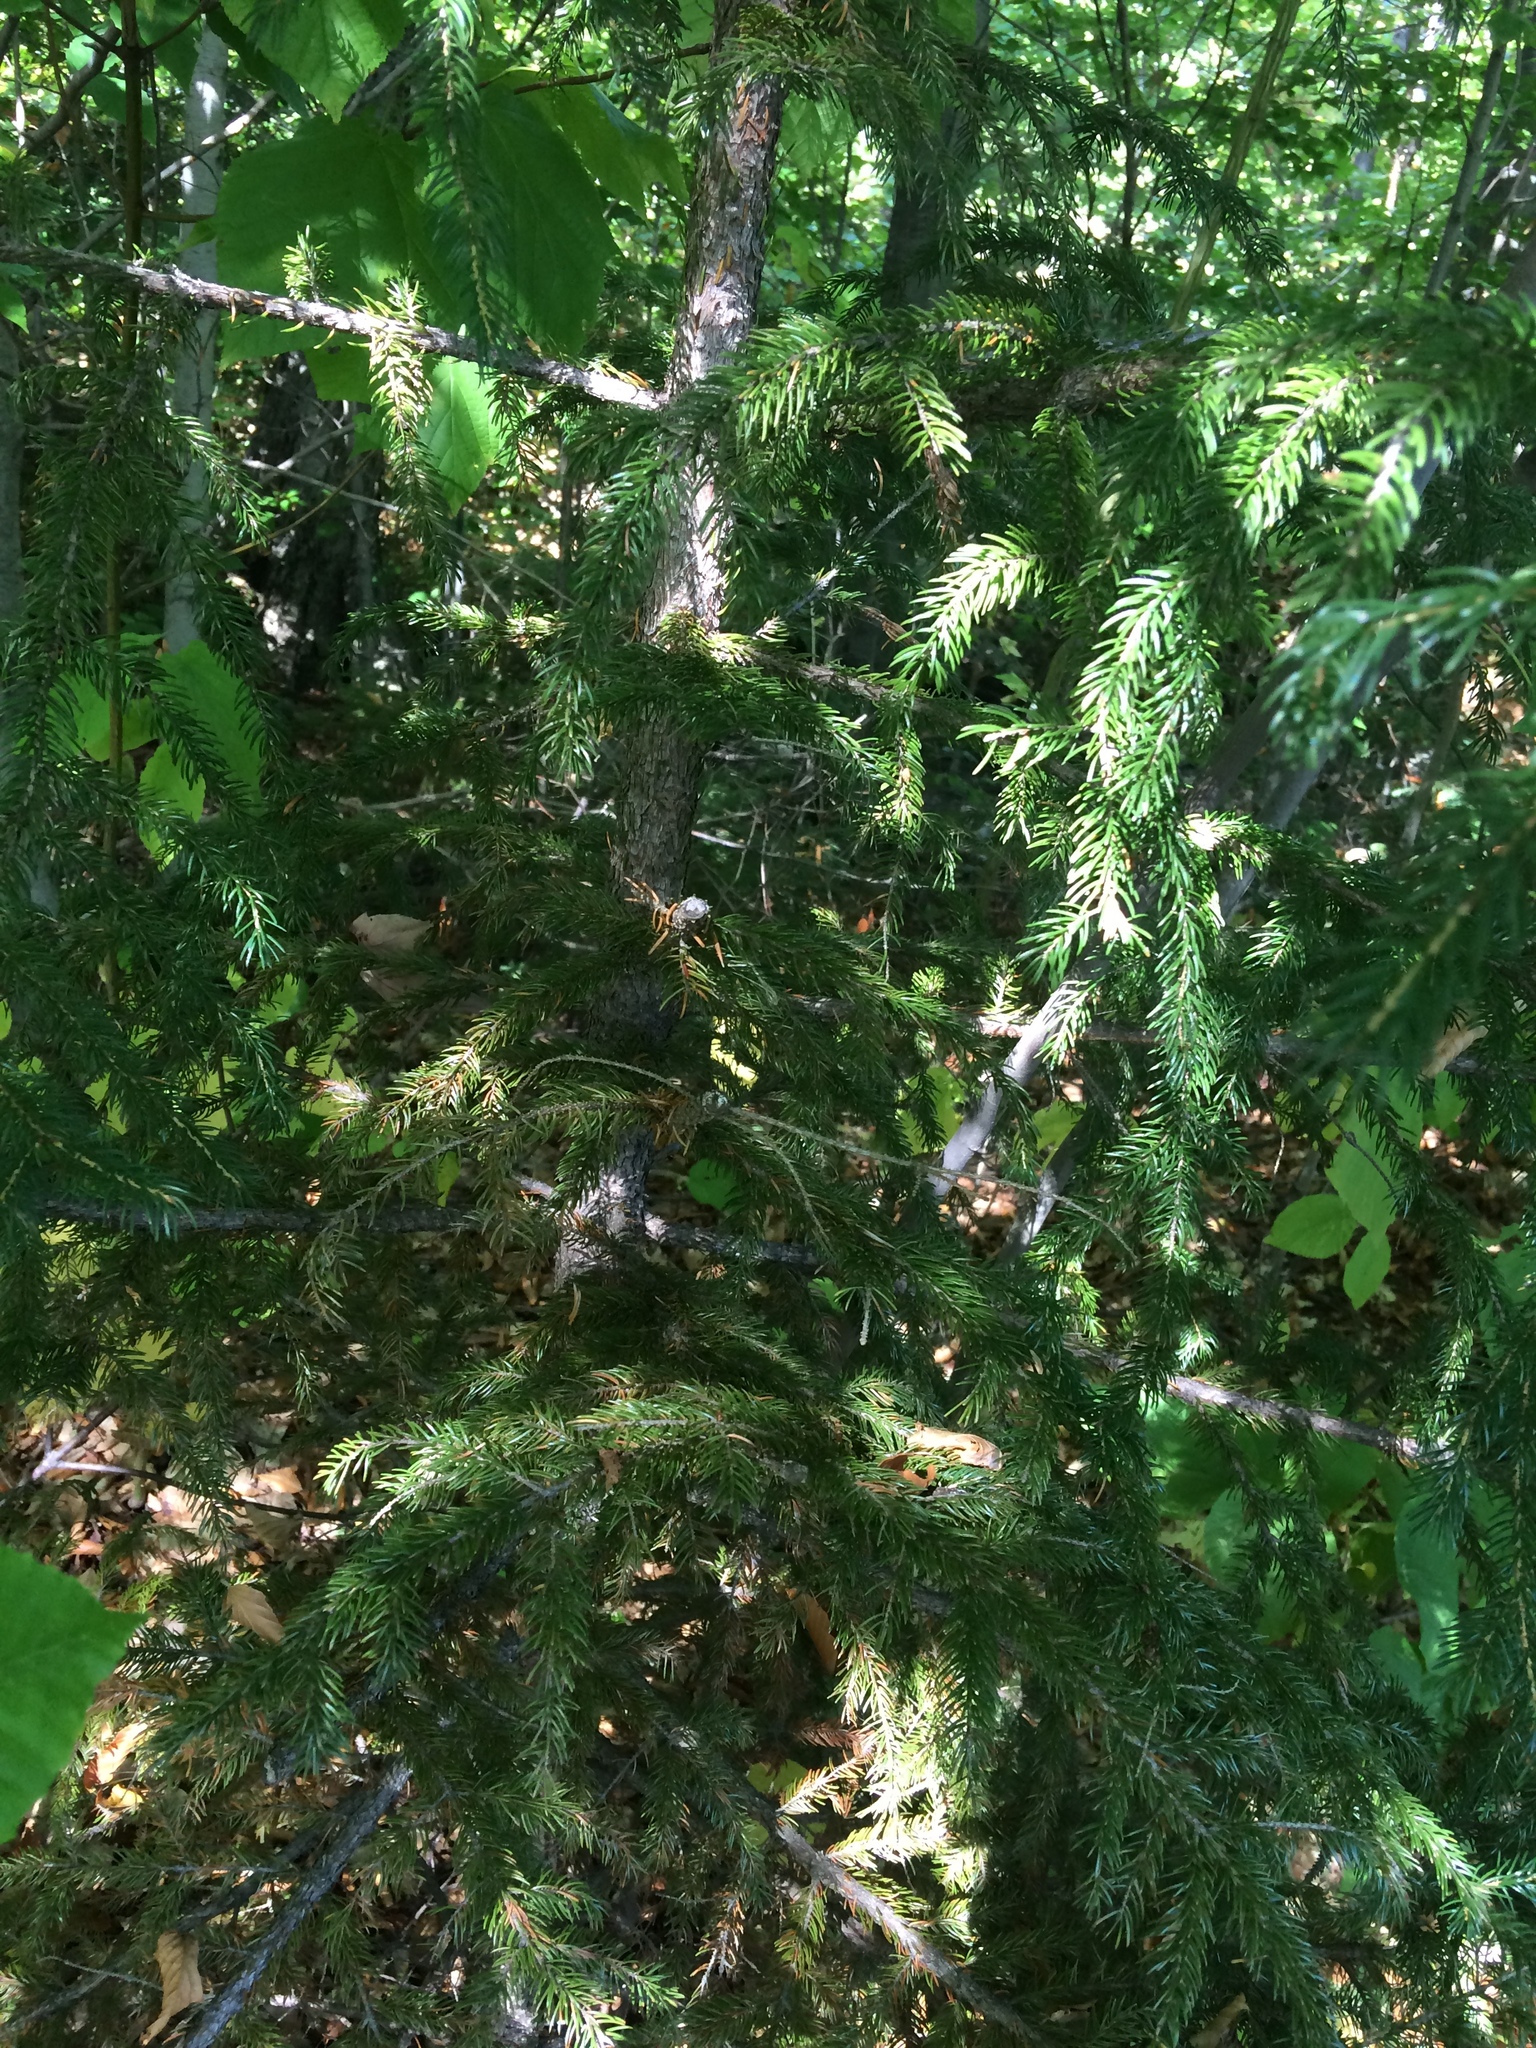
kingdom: Plantae
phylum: Tracheophyta
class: Pinopsida
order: Pinales
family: Pinaceae
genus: Picea
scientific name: Picea rubens
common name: Red spruce
